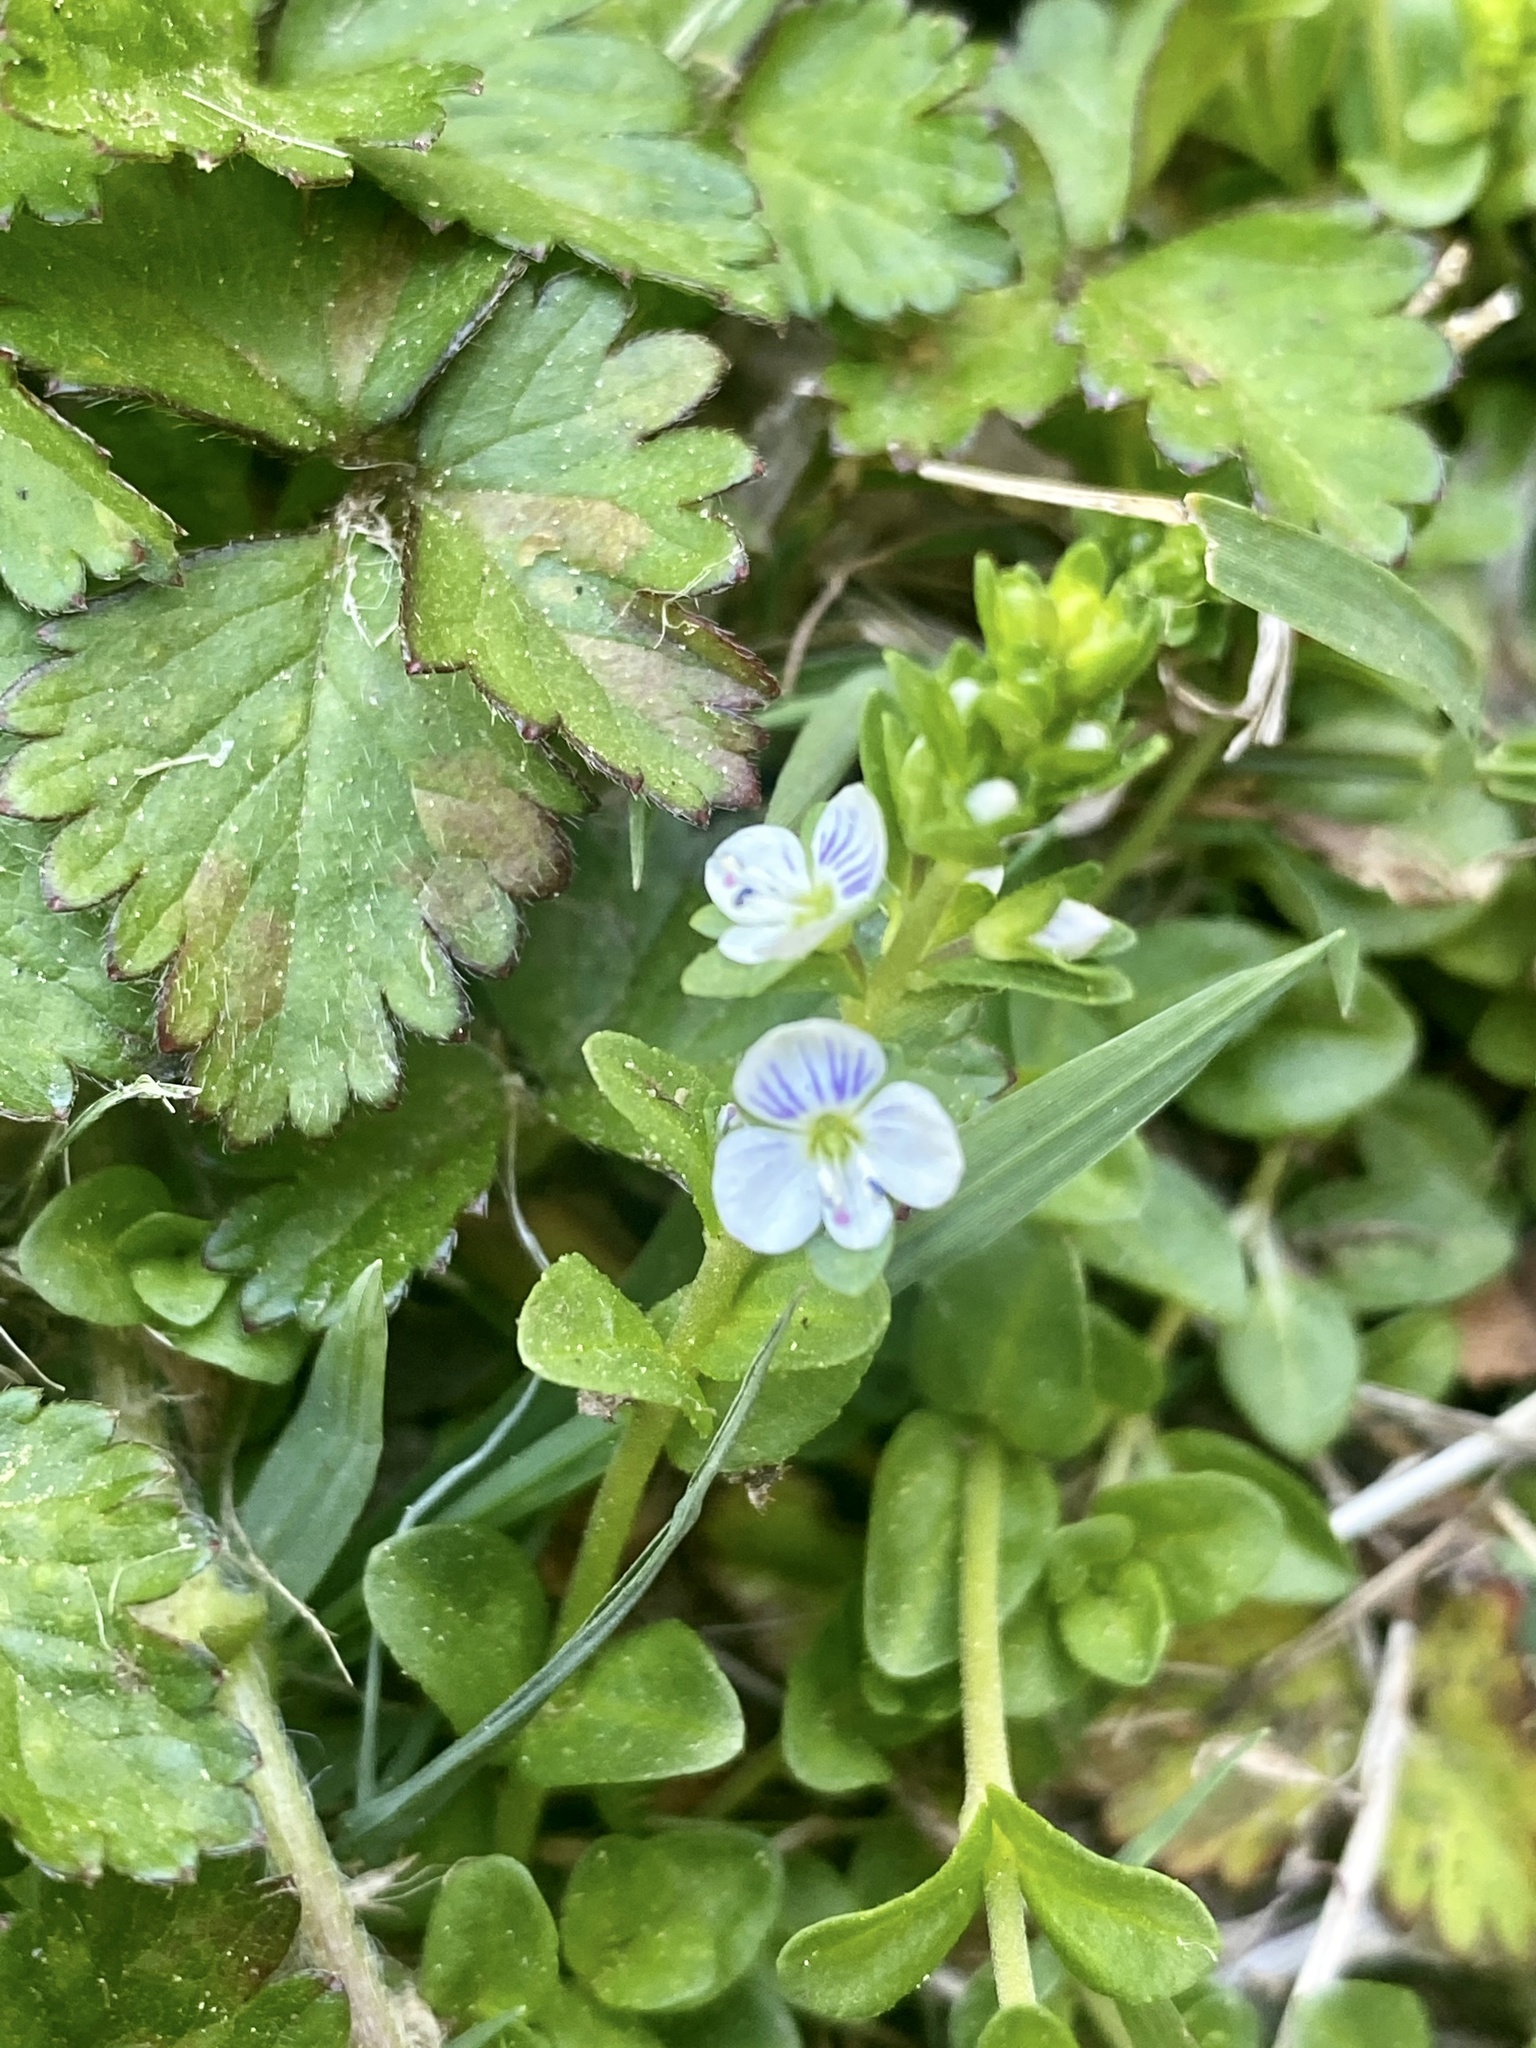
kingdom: Plantae
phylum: Tracheophyta
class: Magnoliopsida
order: Lamiales
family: Plantaginaceae
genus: Veronica
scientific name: Veronica serpyllifolia
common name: Thyme-leaved speedwell
